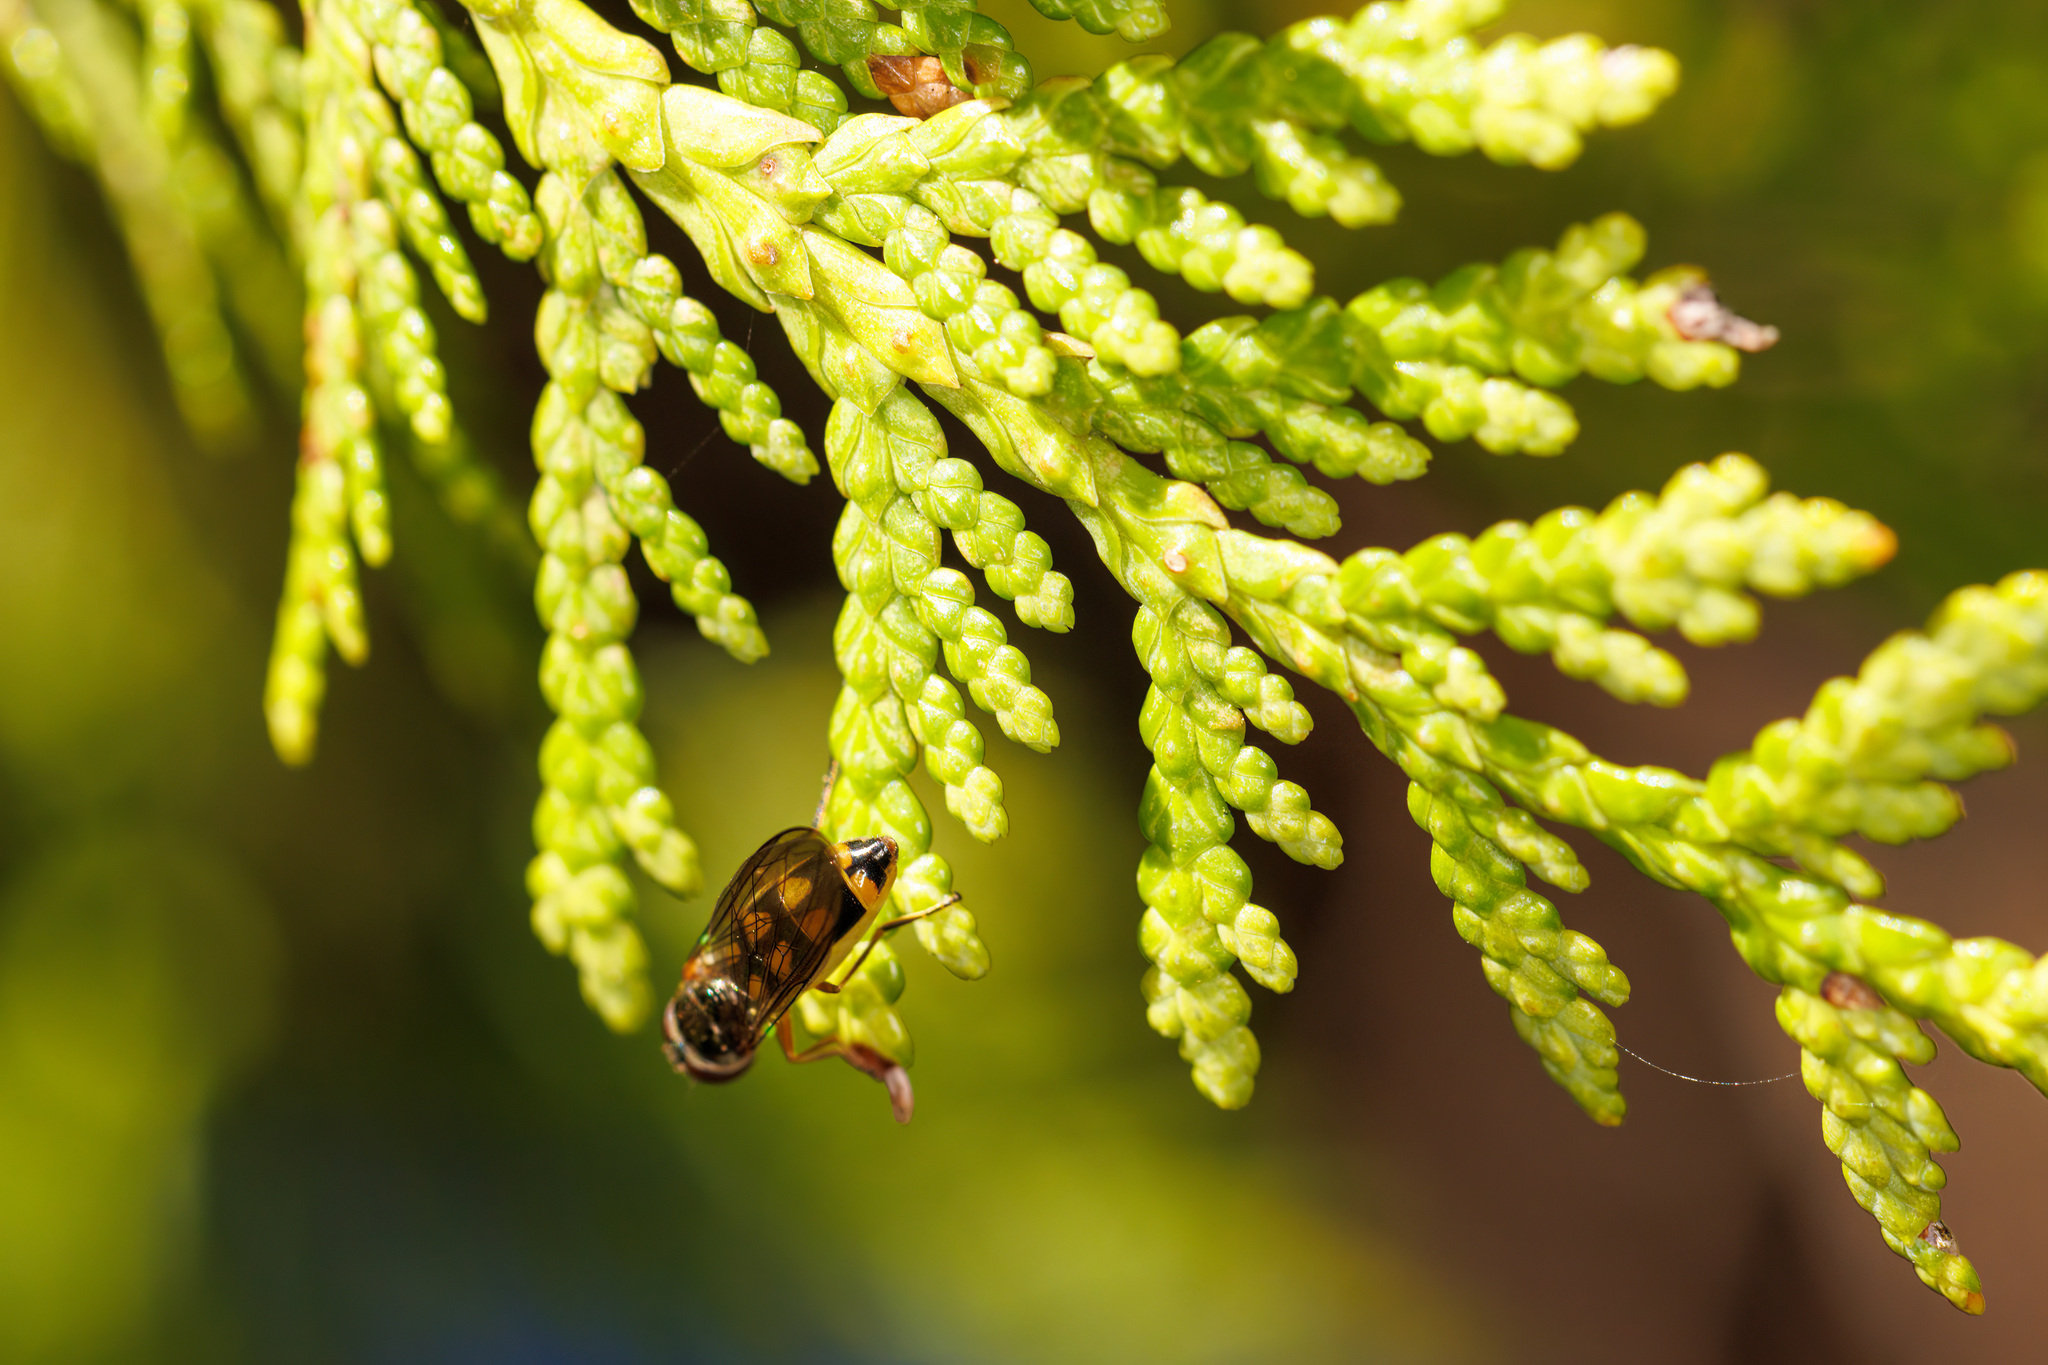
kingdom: Animalia
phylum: Arthropoda
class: Insecta
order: Diptera
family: Syrphidae
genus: Melanostoma
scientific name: Melanostoma mellina
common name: Hover fly
